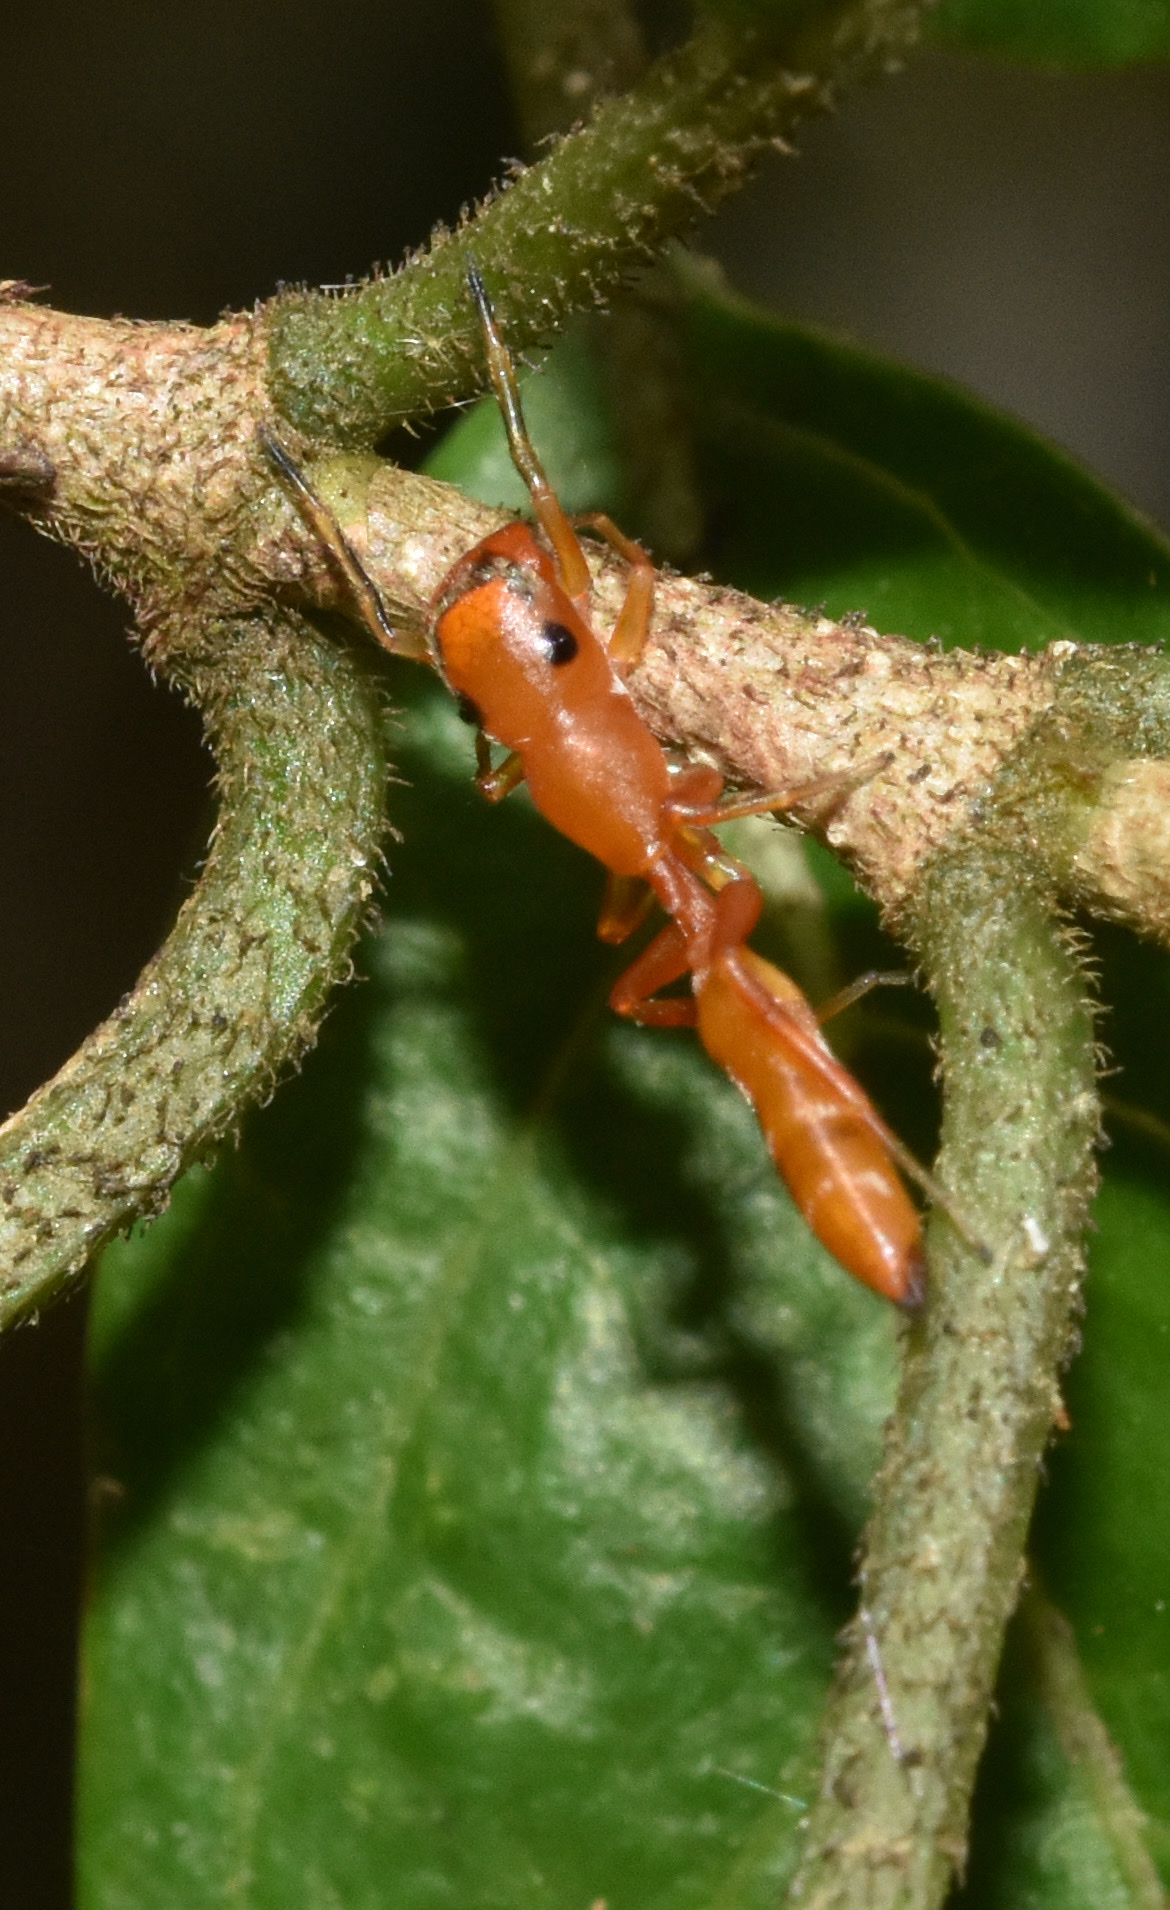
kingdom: Animalia
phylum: Arthropoda
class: Arachnida
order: Araneae
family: Salticidae
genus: Myrmarachne
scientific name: Myrmarachne ichneumon
